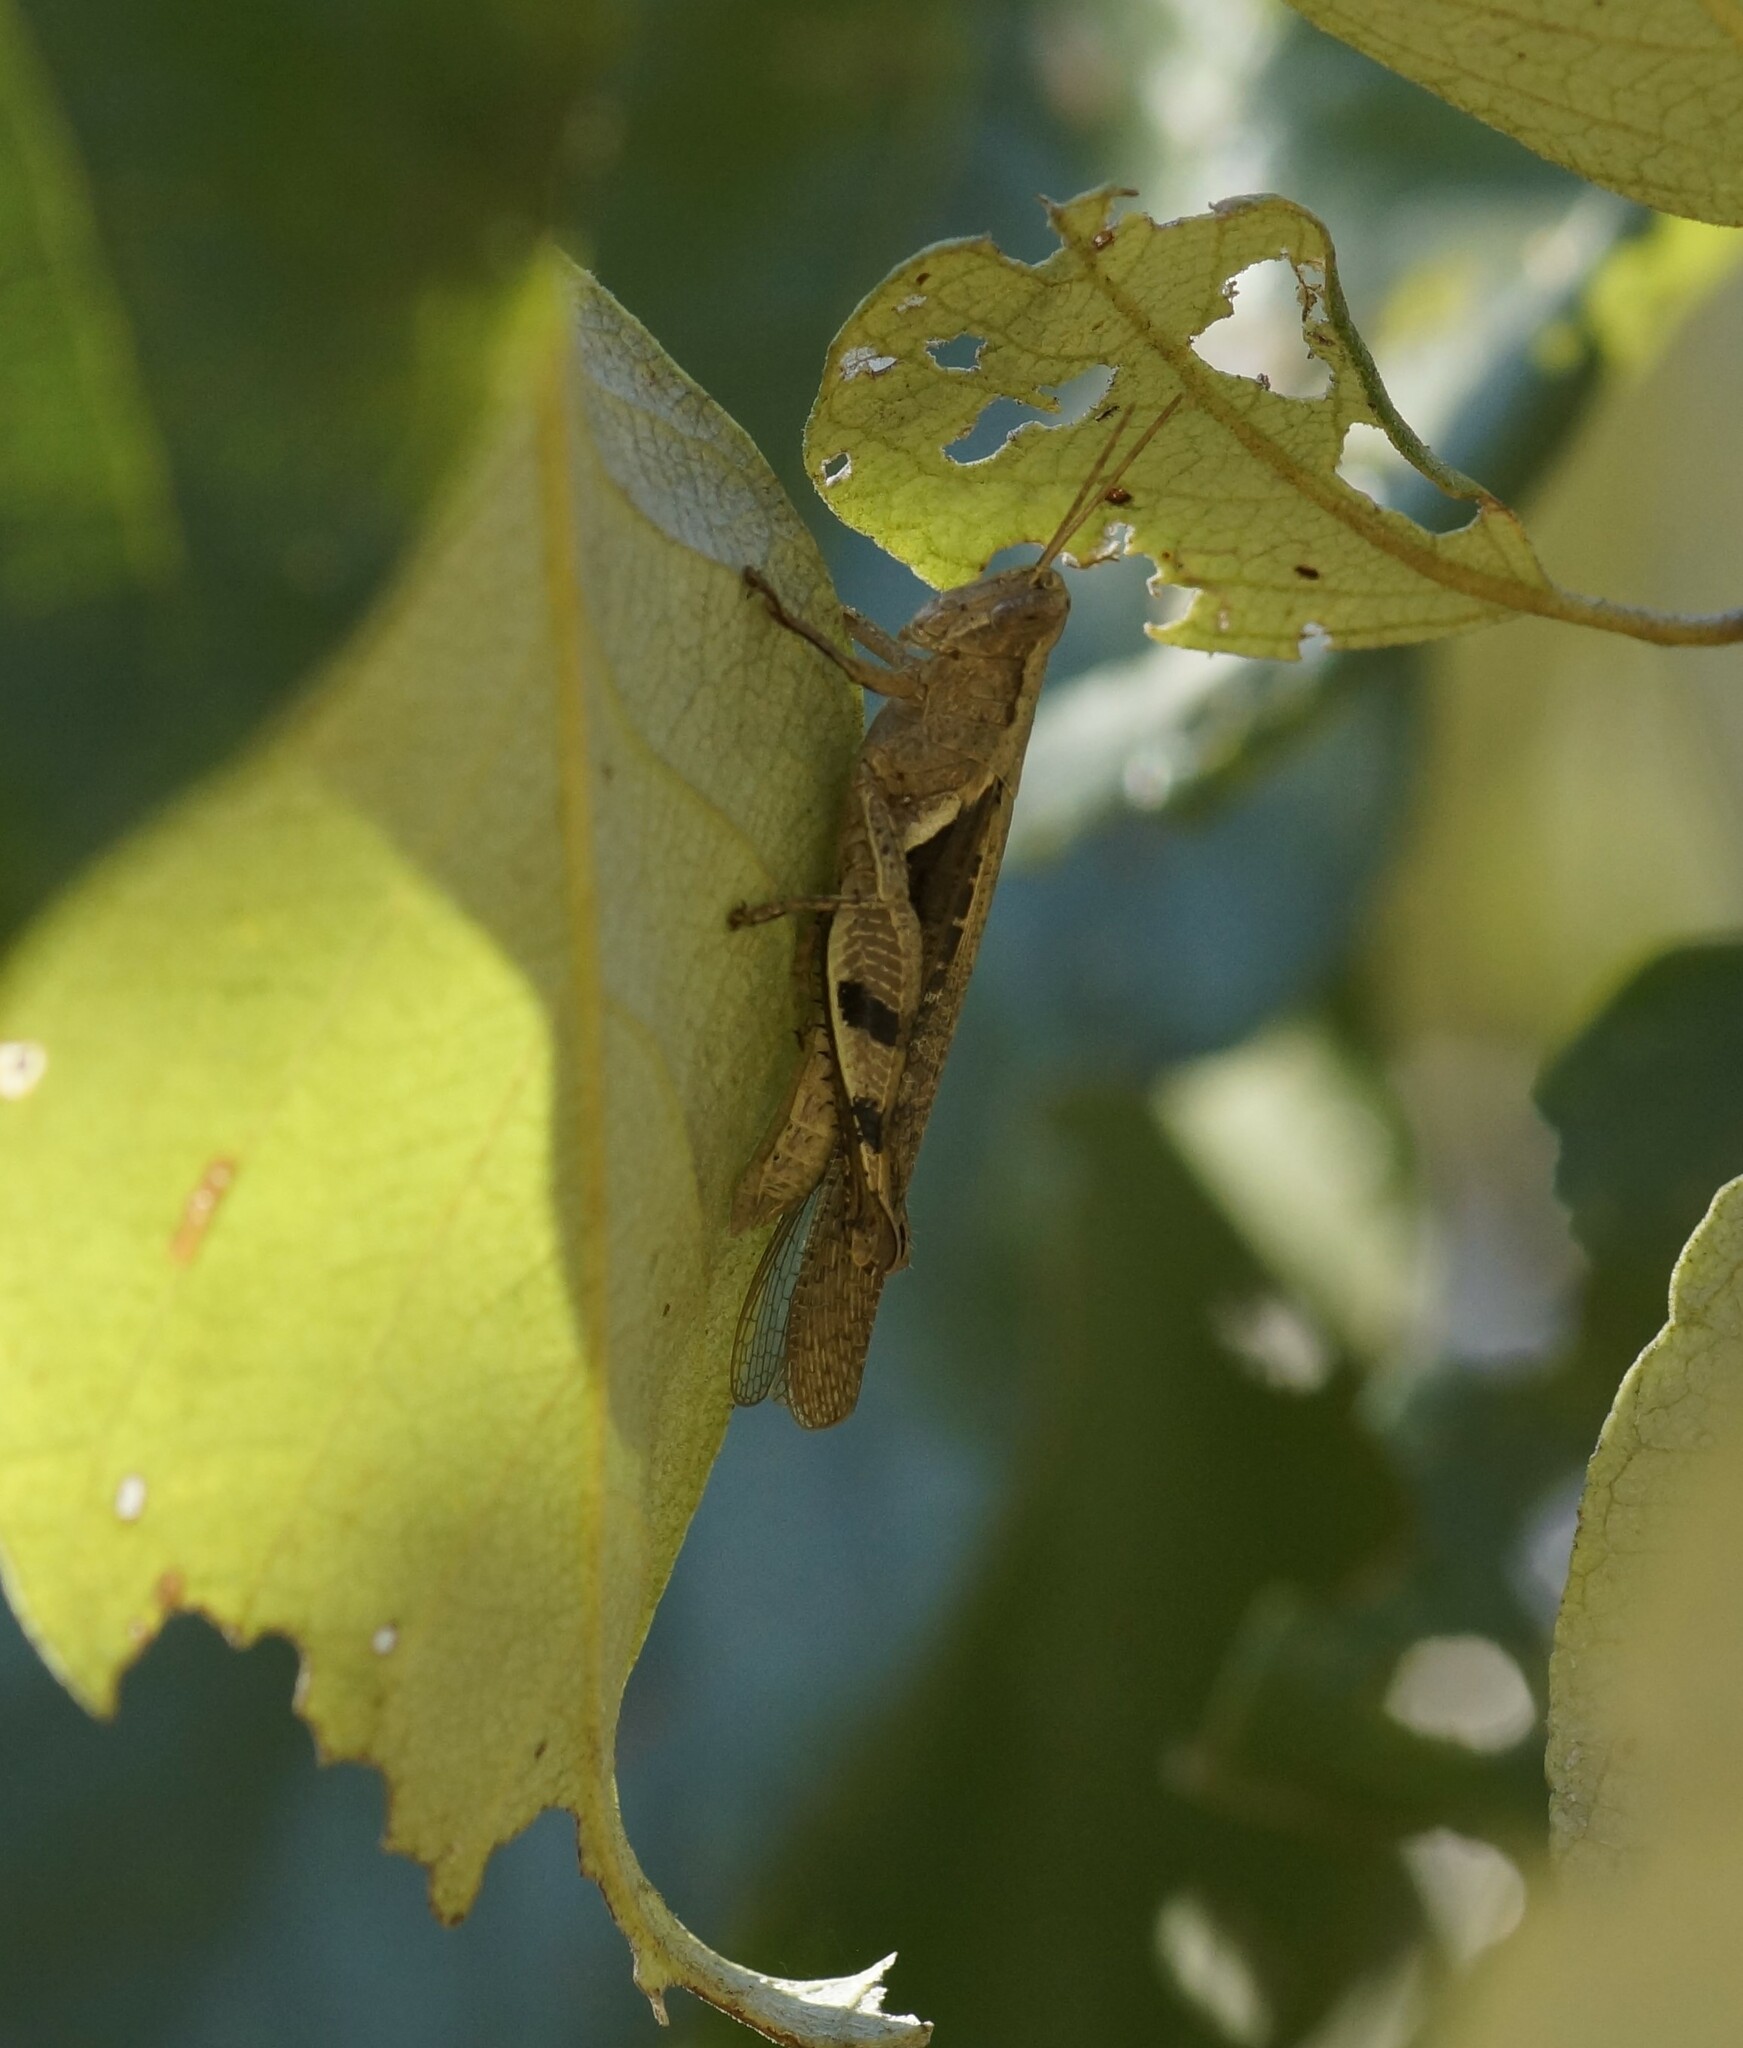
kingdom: Animalia
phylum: Arthropoda
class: Insecta
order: Orthoptera
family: Acrididae
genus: Stenocatantops
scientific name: Stenocatantops angustifrons
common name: Common tropical sharptail
